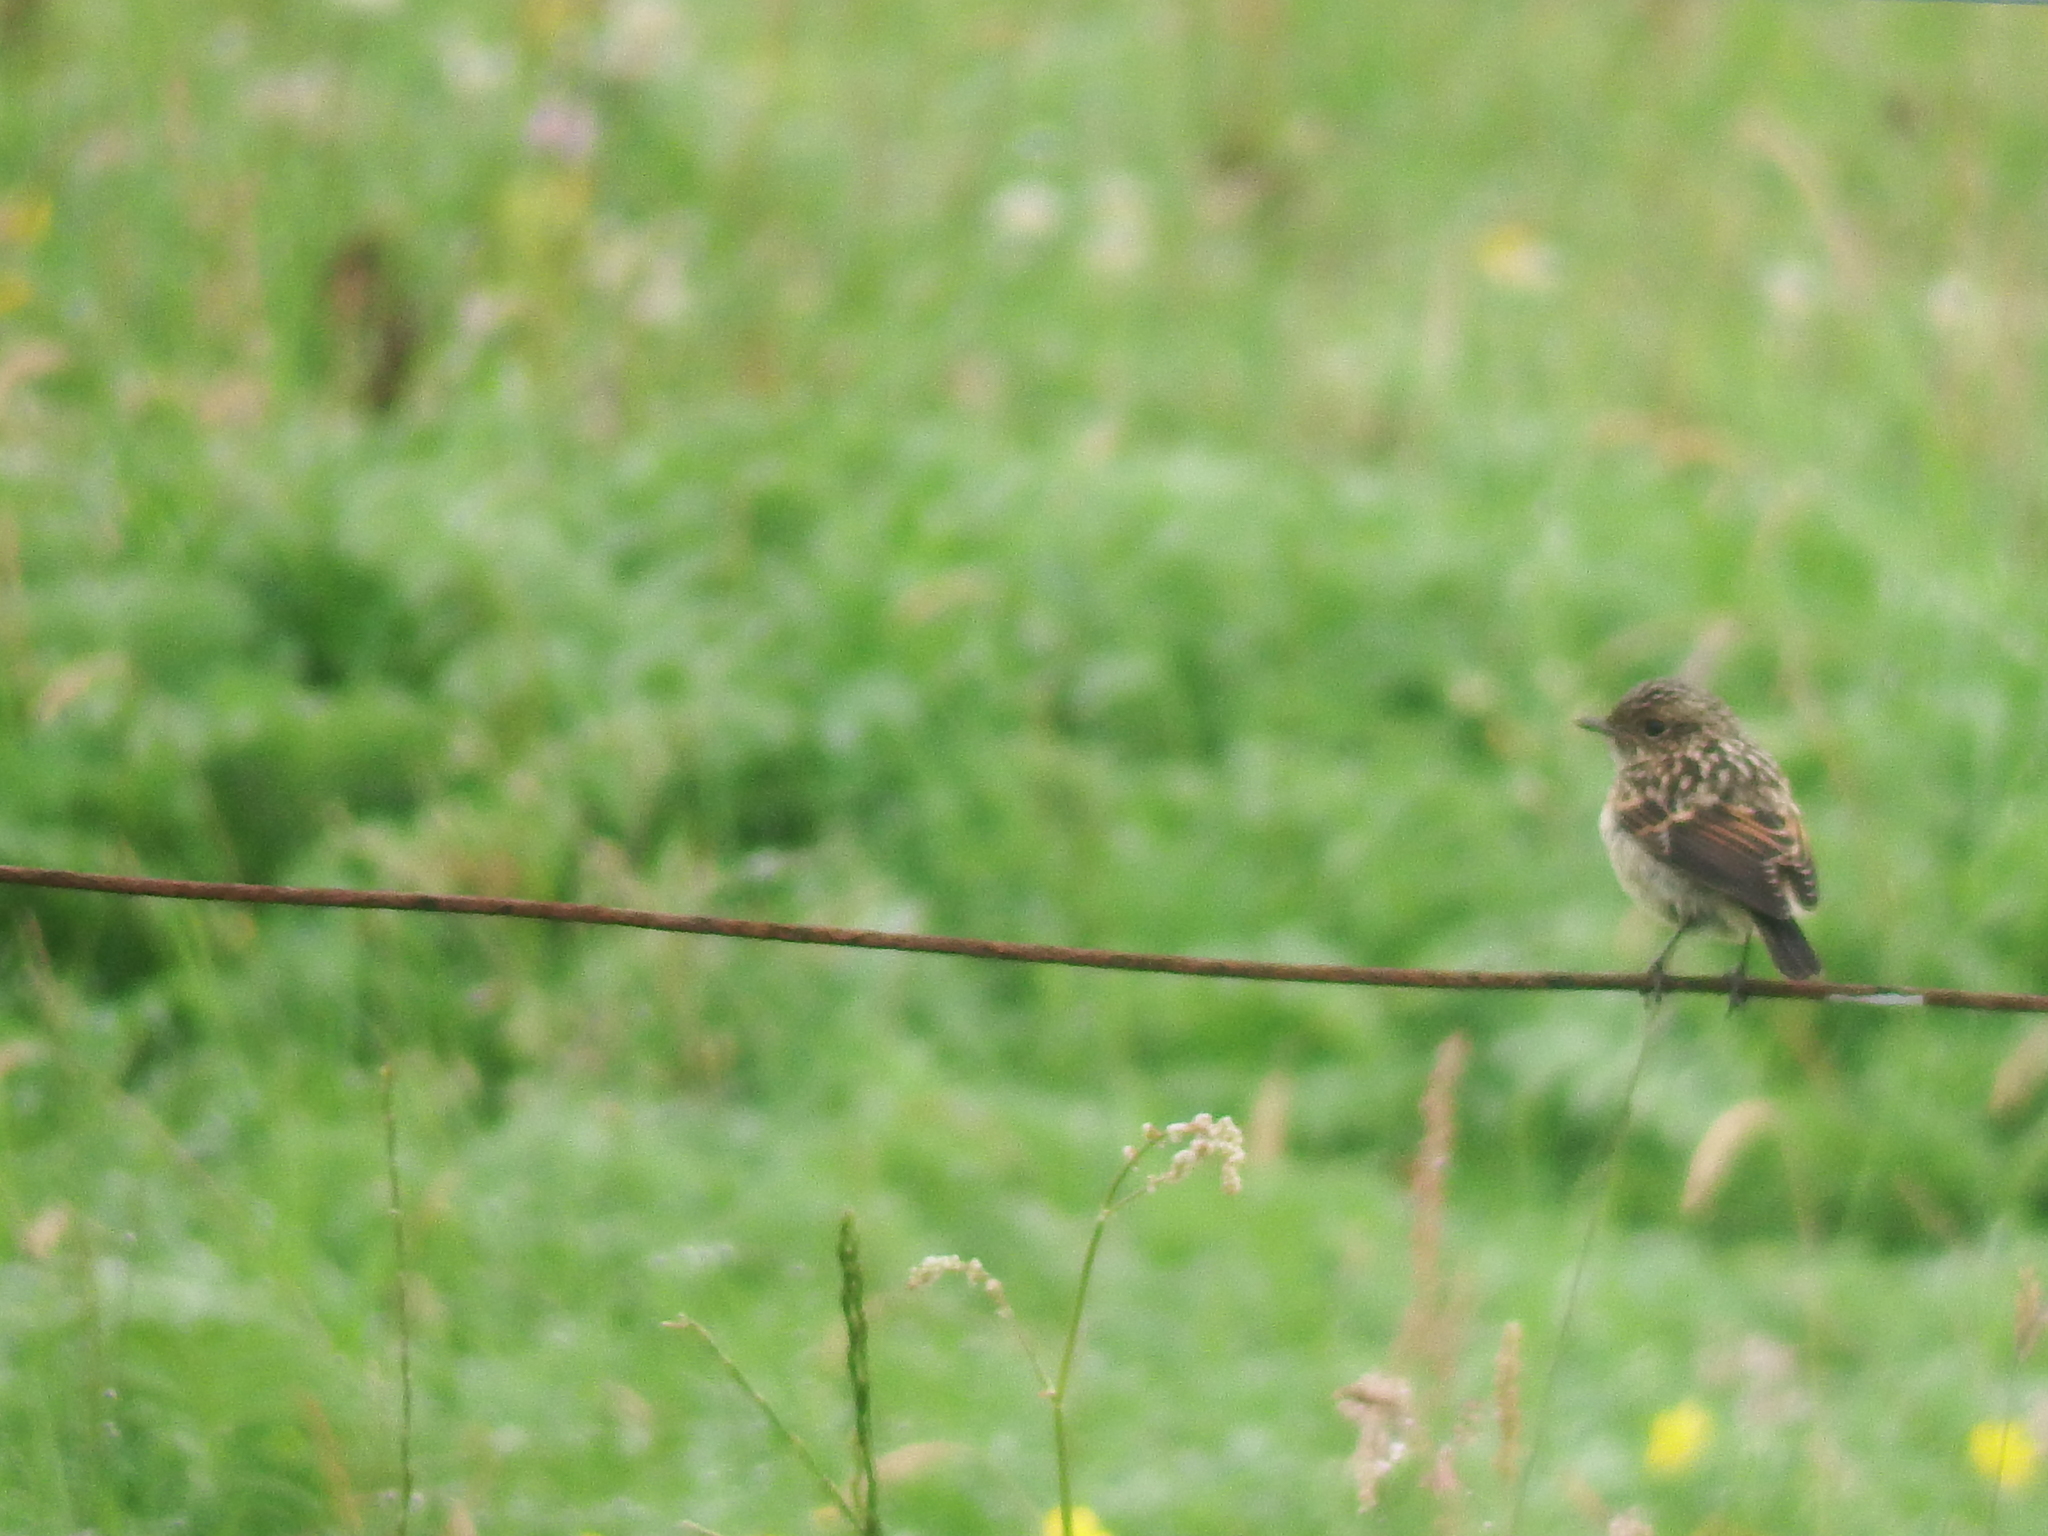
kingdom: Animalia
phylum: Chordata
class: Aves
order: Passeriformes
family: Muscicapidae
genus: Saxicola
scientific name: Saxicola rubicola
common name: European stonechat
